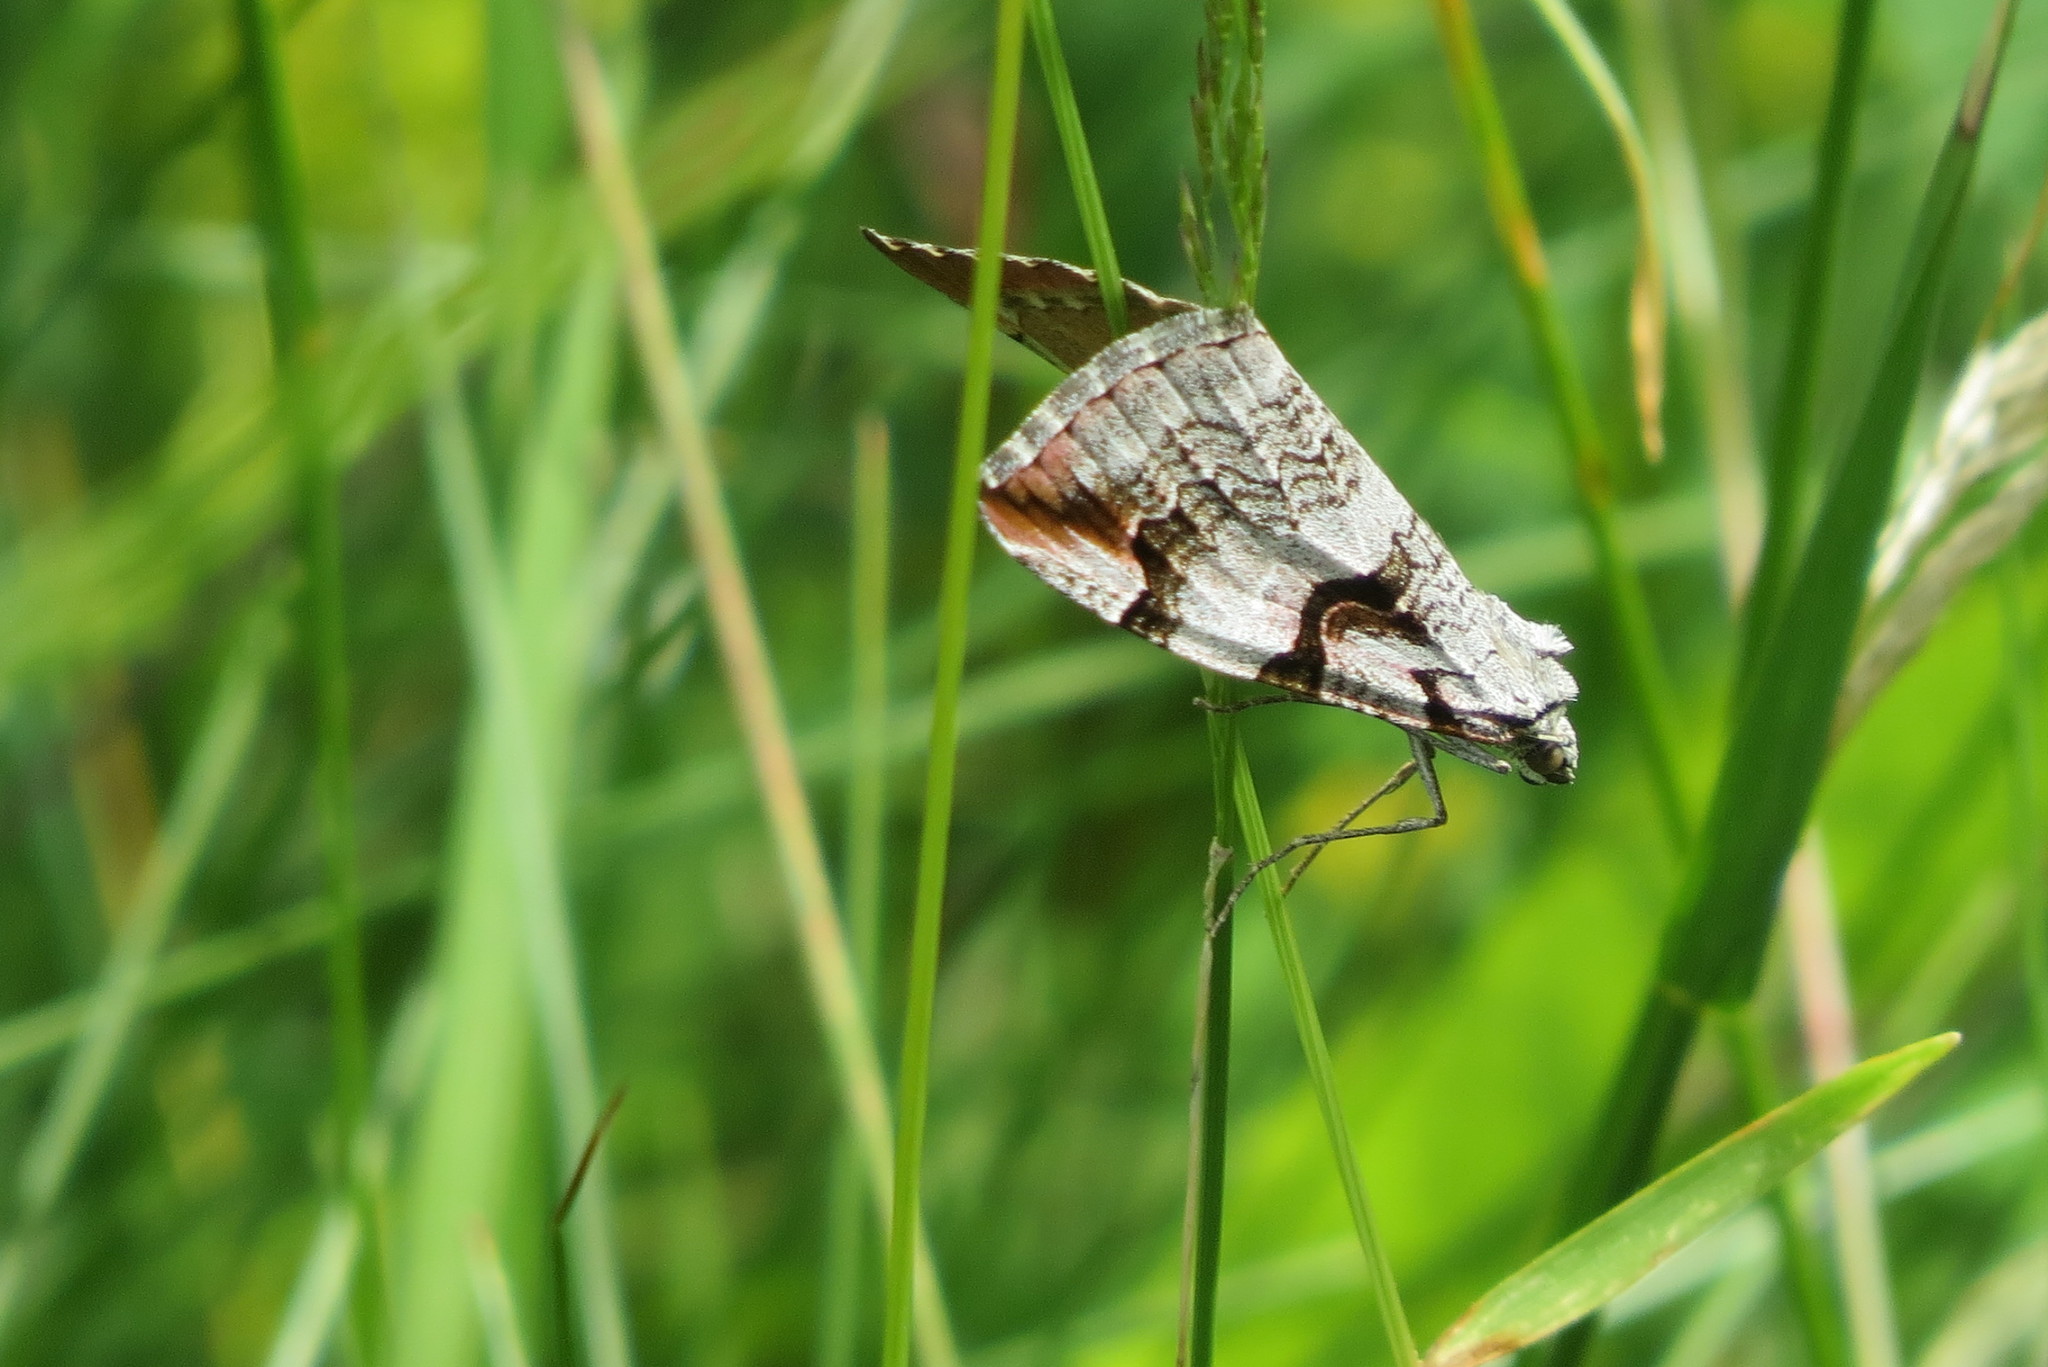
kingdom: Animalia
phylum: Arthropoda
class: Insecta
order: Lepidoptera
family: Geometridae
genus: Aplocera
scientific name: Aplocera praeformata
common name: Purple treble-bar
